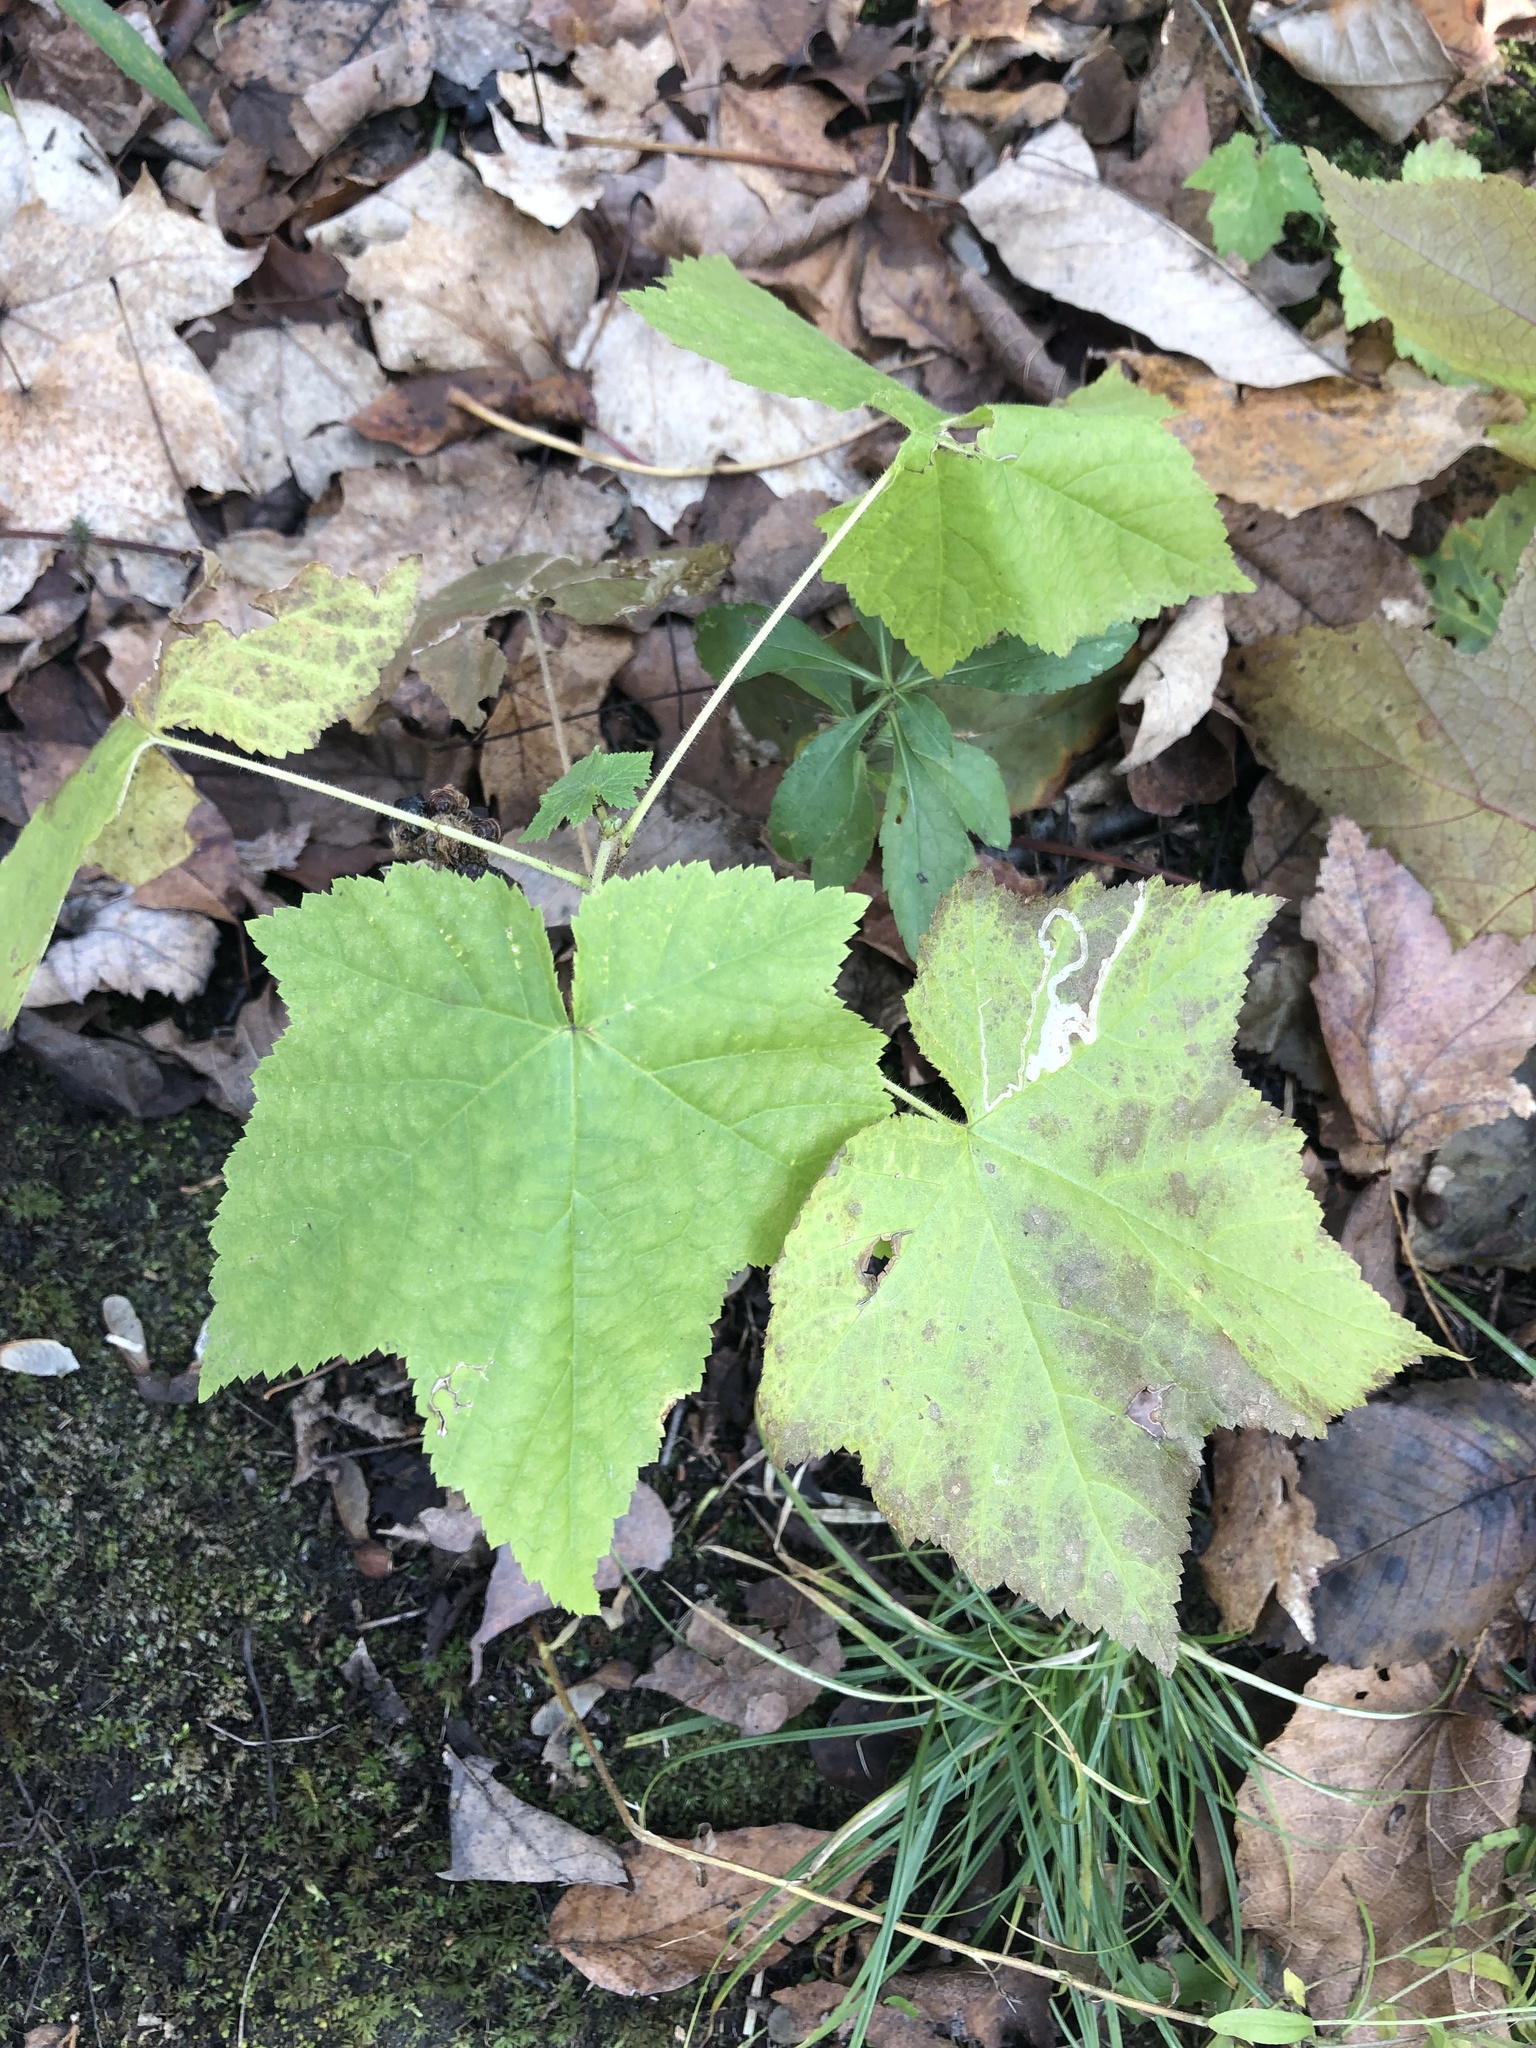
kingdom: Plantae
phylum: Tracheophyta
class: Magnoliopsida
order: Rosales
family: Rosaceae
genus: Rubus
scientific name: Rubus odoratus
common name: Purple-flowered raspberry
